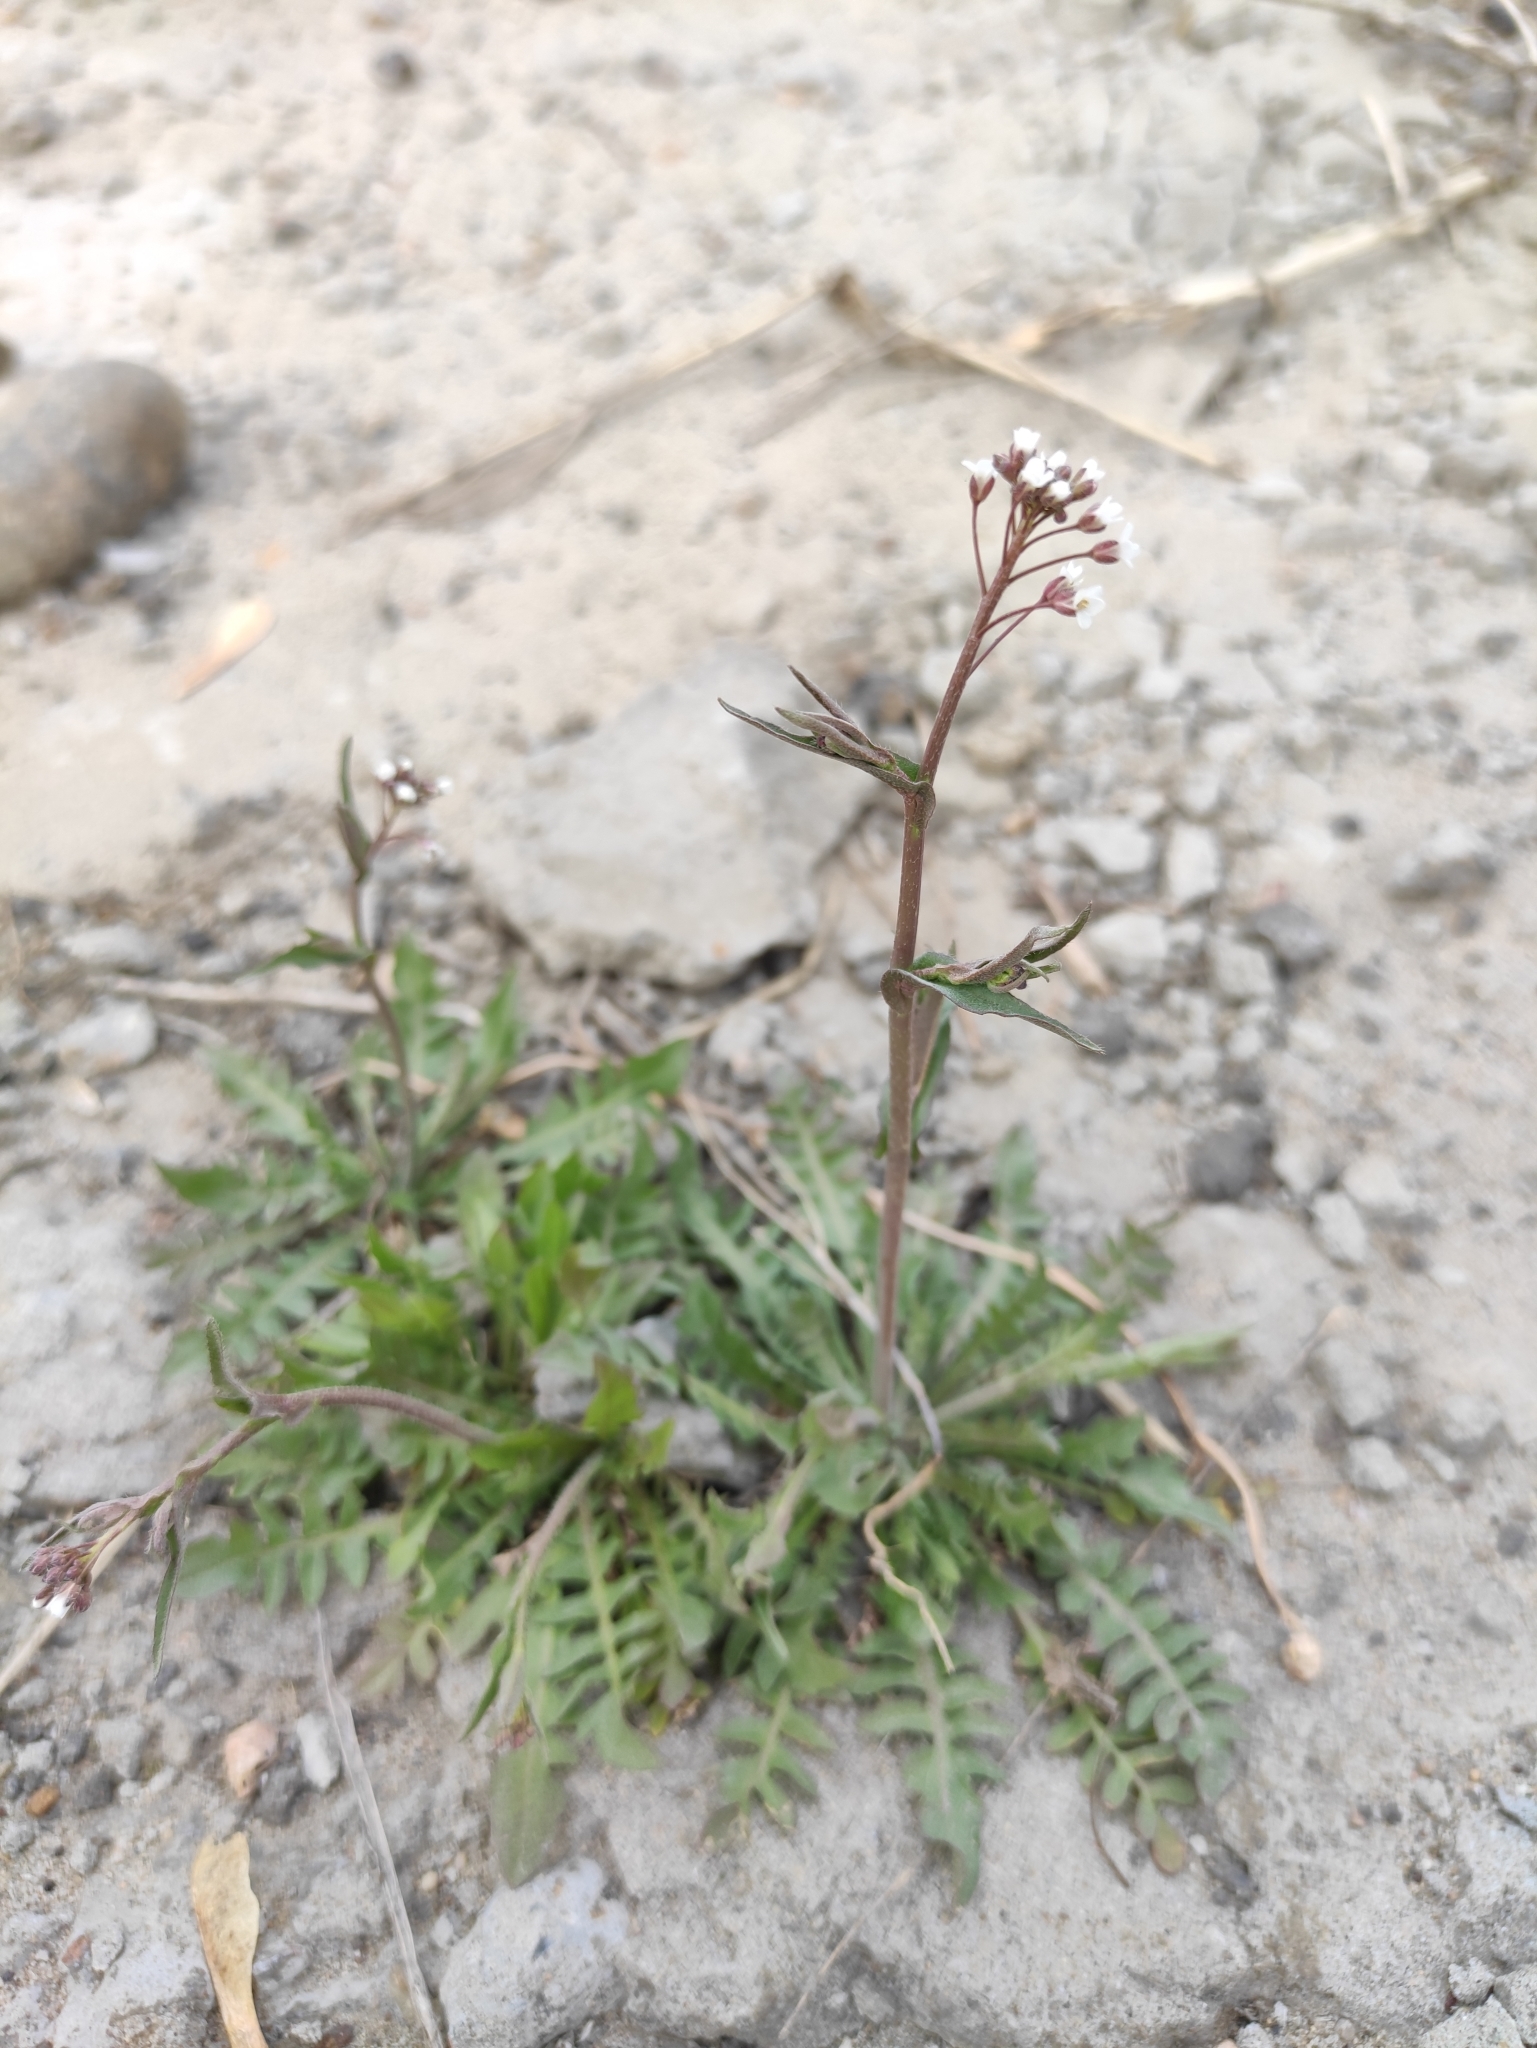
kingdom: Plantae
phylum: Tracheophyta
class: Magnoliopsida
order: Brassicales
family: Brassicaceae
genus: Capsella
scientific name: Capsella bursa-pastoris
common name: Shepherd's purse
